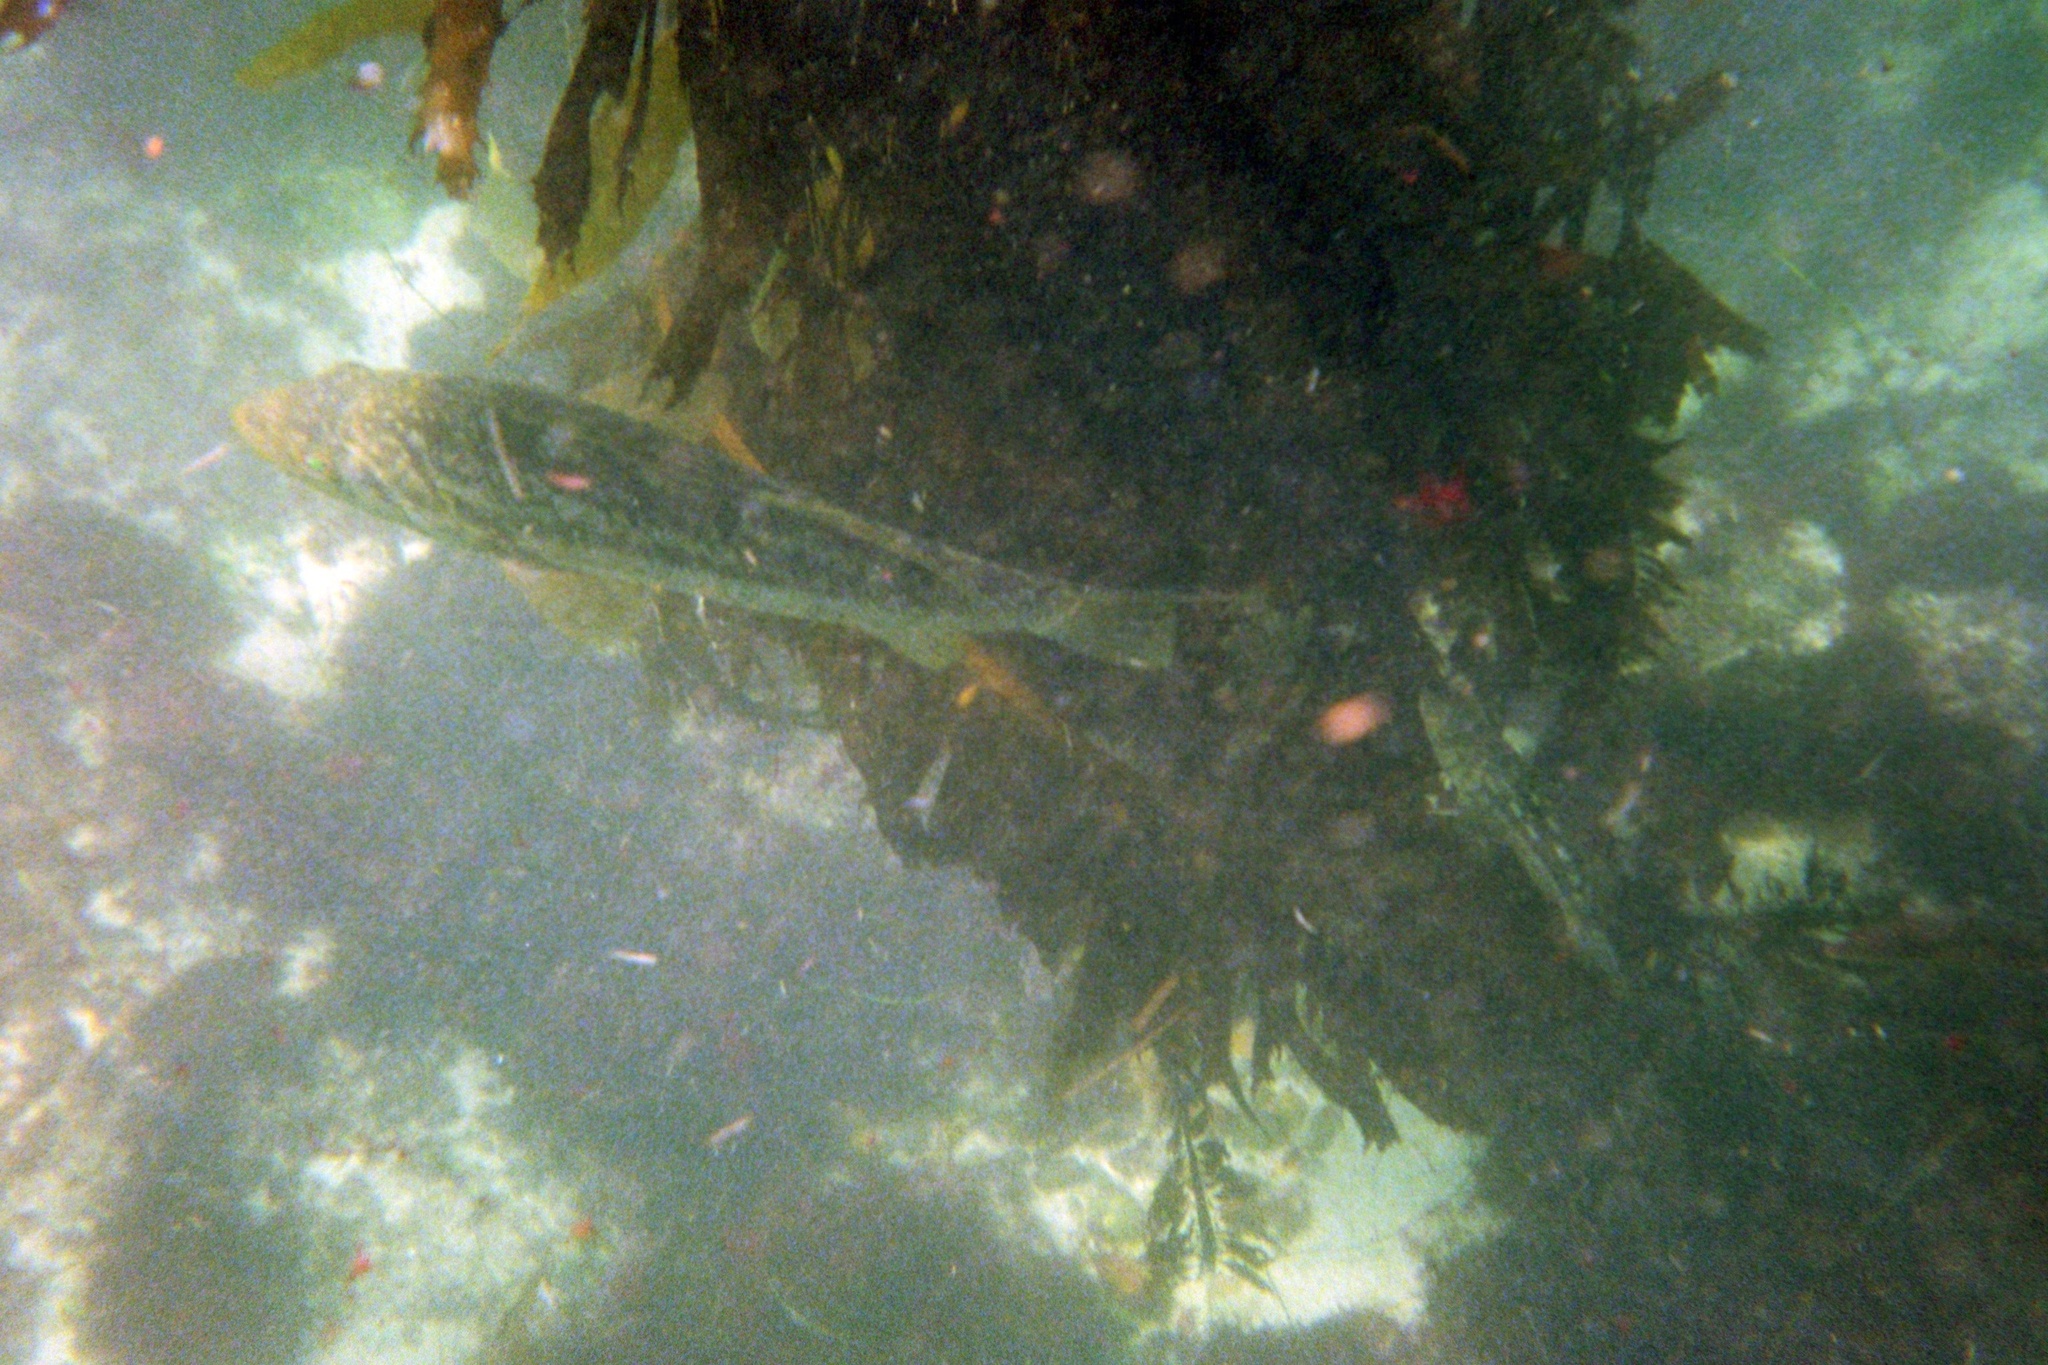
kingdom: Animalia
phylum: Chordata
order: Perciformes
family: Serranidae
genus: Paralabrax
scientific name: Paralabrax clathratus
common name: Kelp bass
